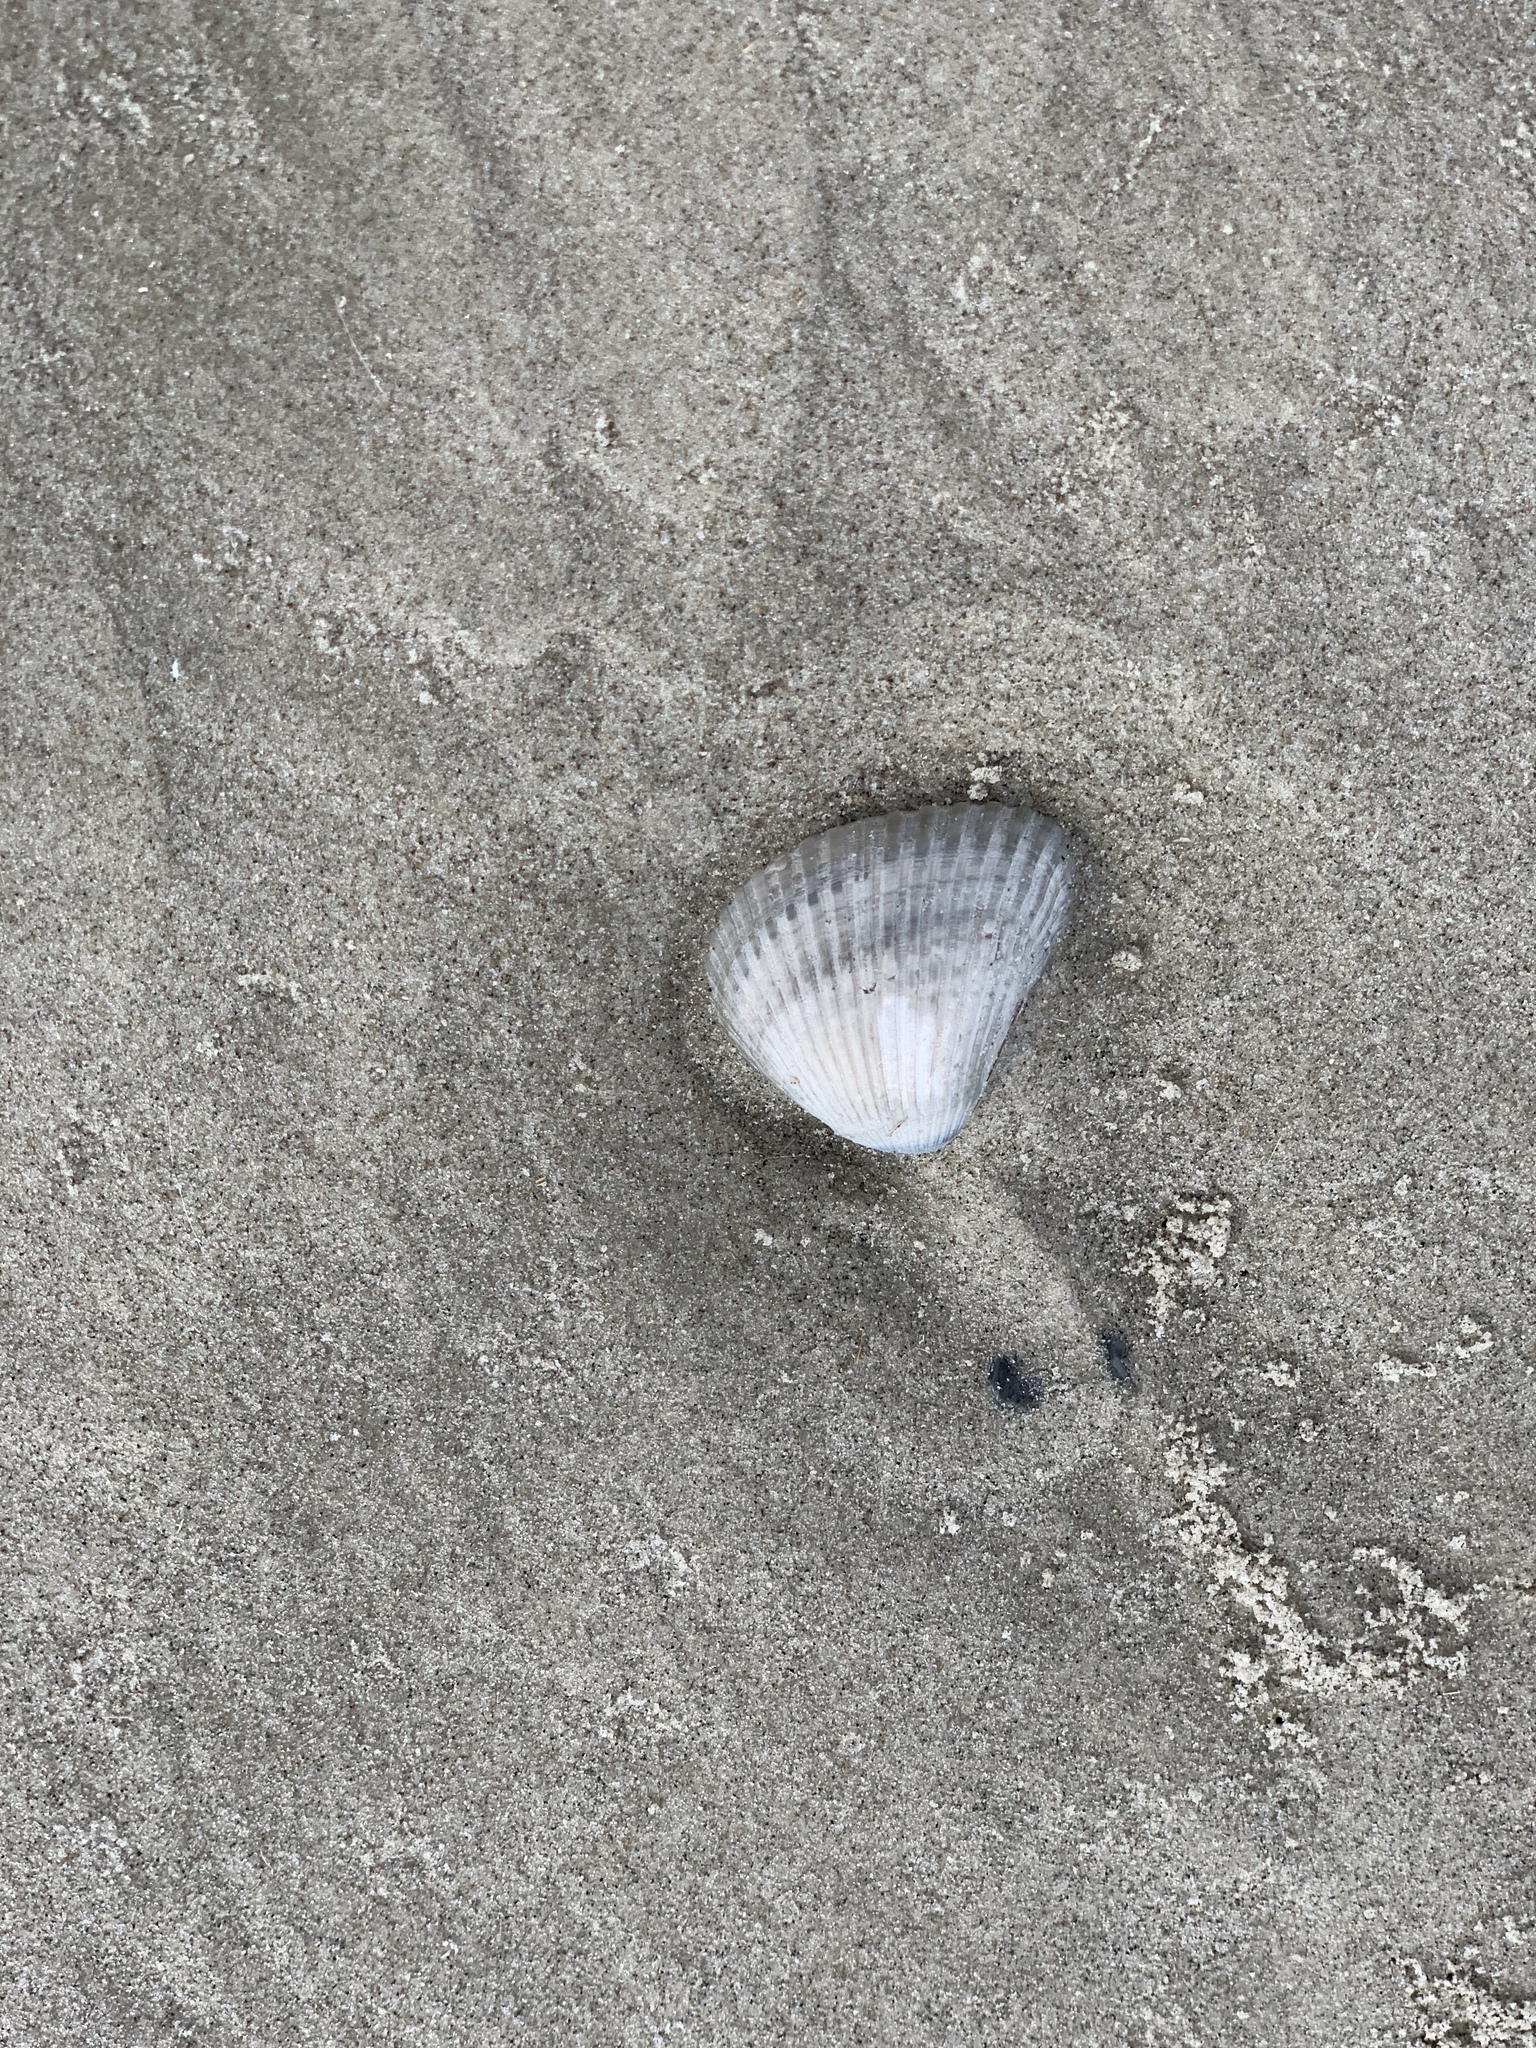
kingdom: Animalia
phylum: Mollusca
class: Bivalvia
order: Arcida
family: Noetiidae
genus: Noetia
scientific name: Noetia ponderosa
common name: Ponderous ark
